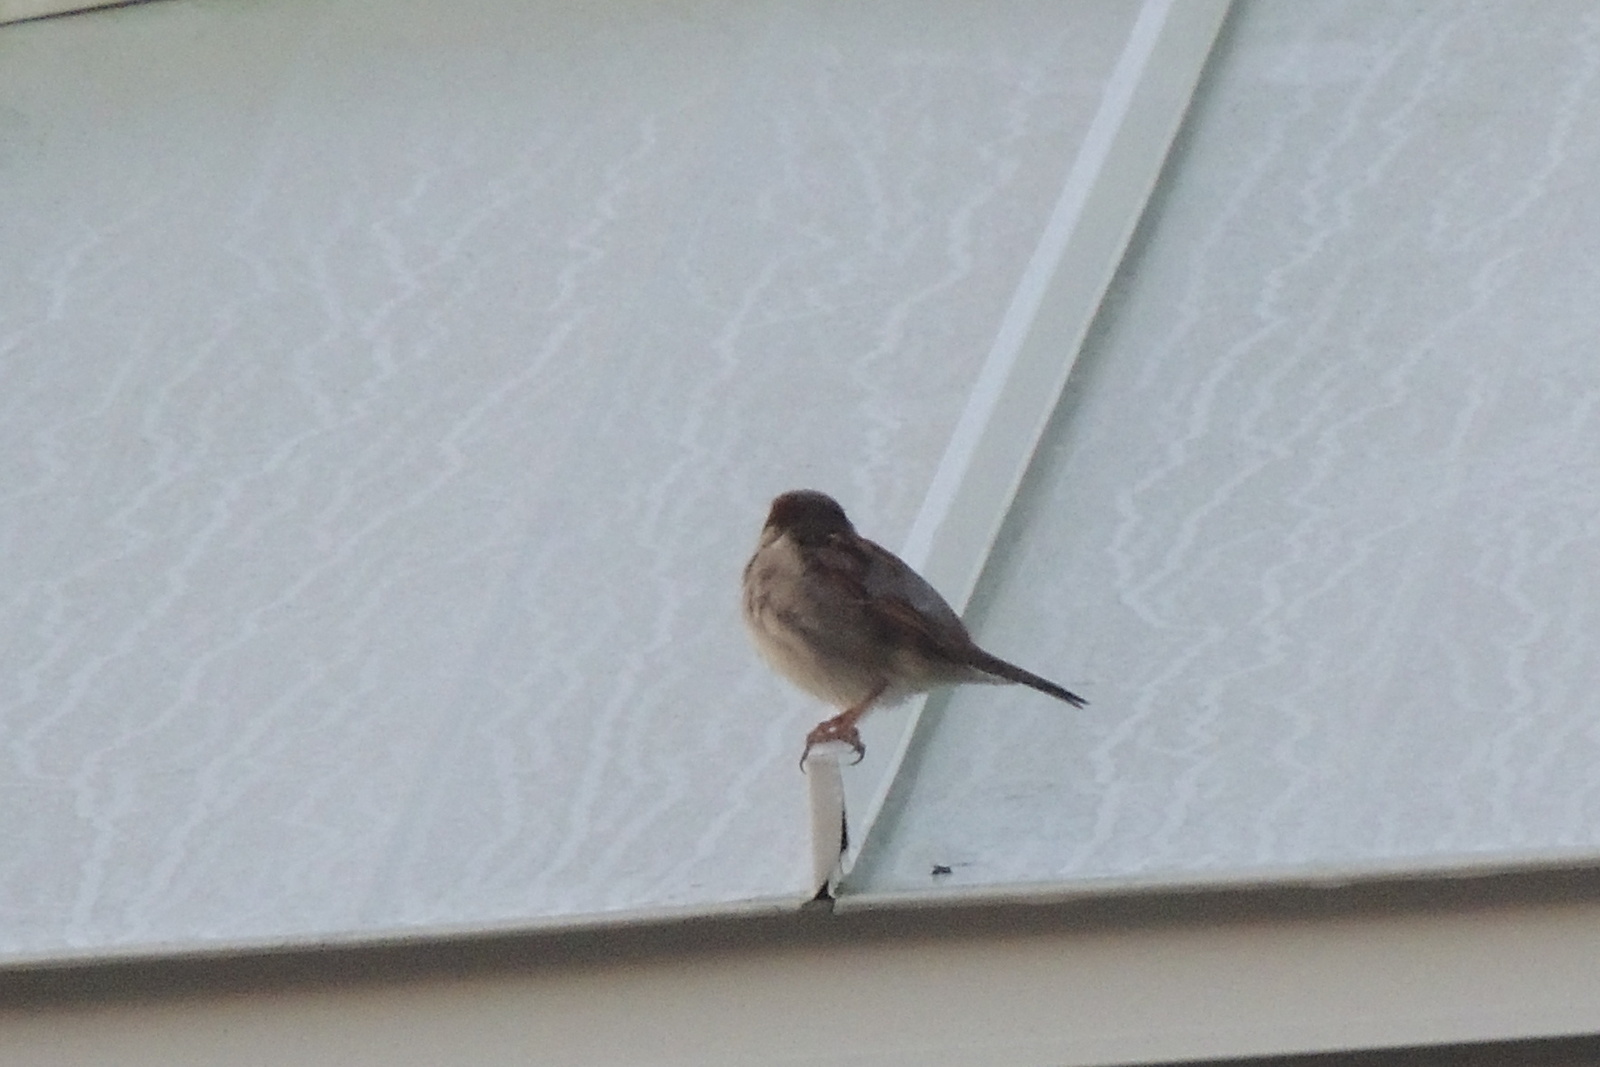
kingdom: Animalia
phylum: Chordata
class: Aves
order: Passeriformes
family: Passeridae
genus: Passer
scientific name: Passer domesticus
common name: House sparrow
